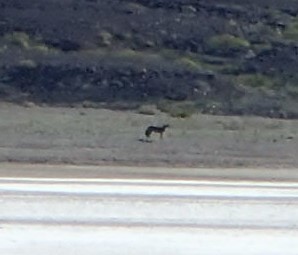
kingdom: Animalia
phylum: Chordata
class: Mammalia
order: Carnivora
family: Canidae
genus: Canis
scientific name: Canis latrans
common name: Coyote
